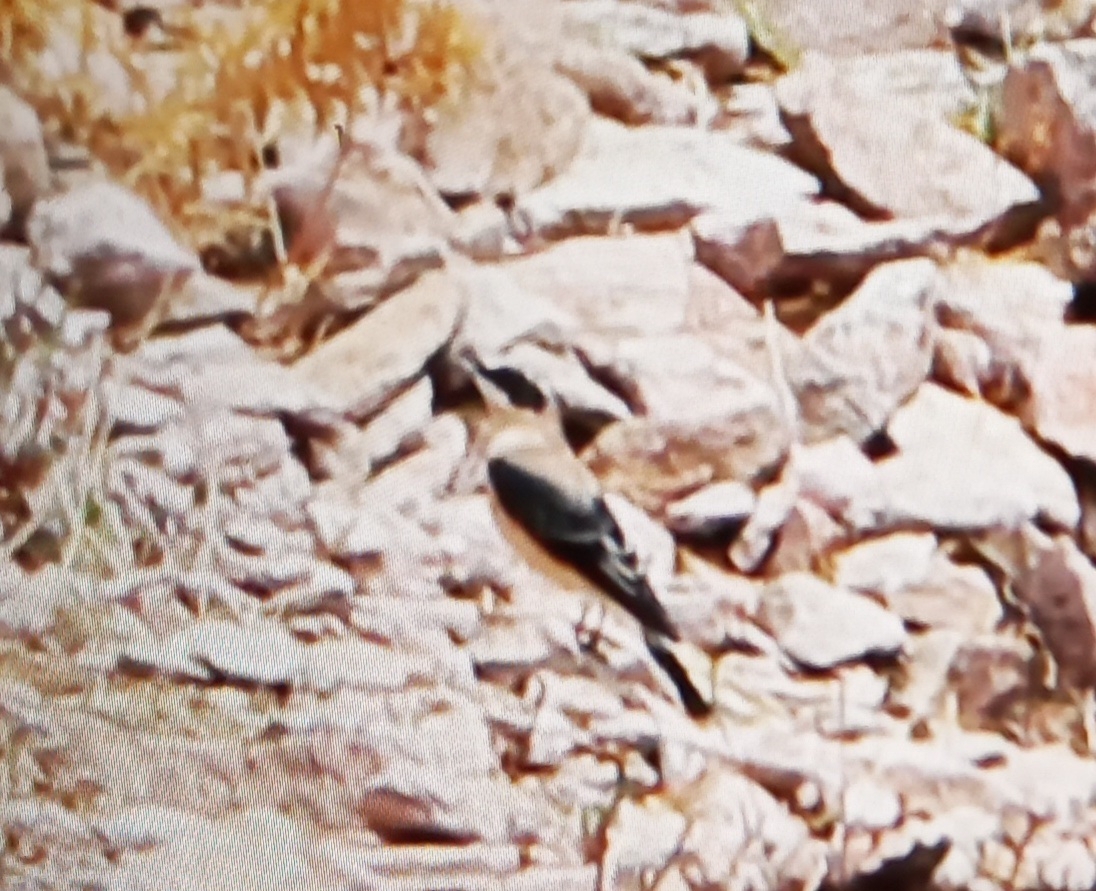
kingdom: Animalia
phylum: Chordata
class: Aves
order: Passeriformes
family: Muscicapidae
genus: Oenanthe
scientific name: Oenanthe oenanthe
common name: Northern wheatear
